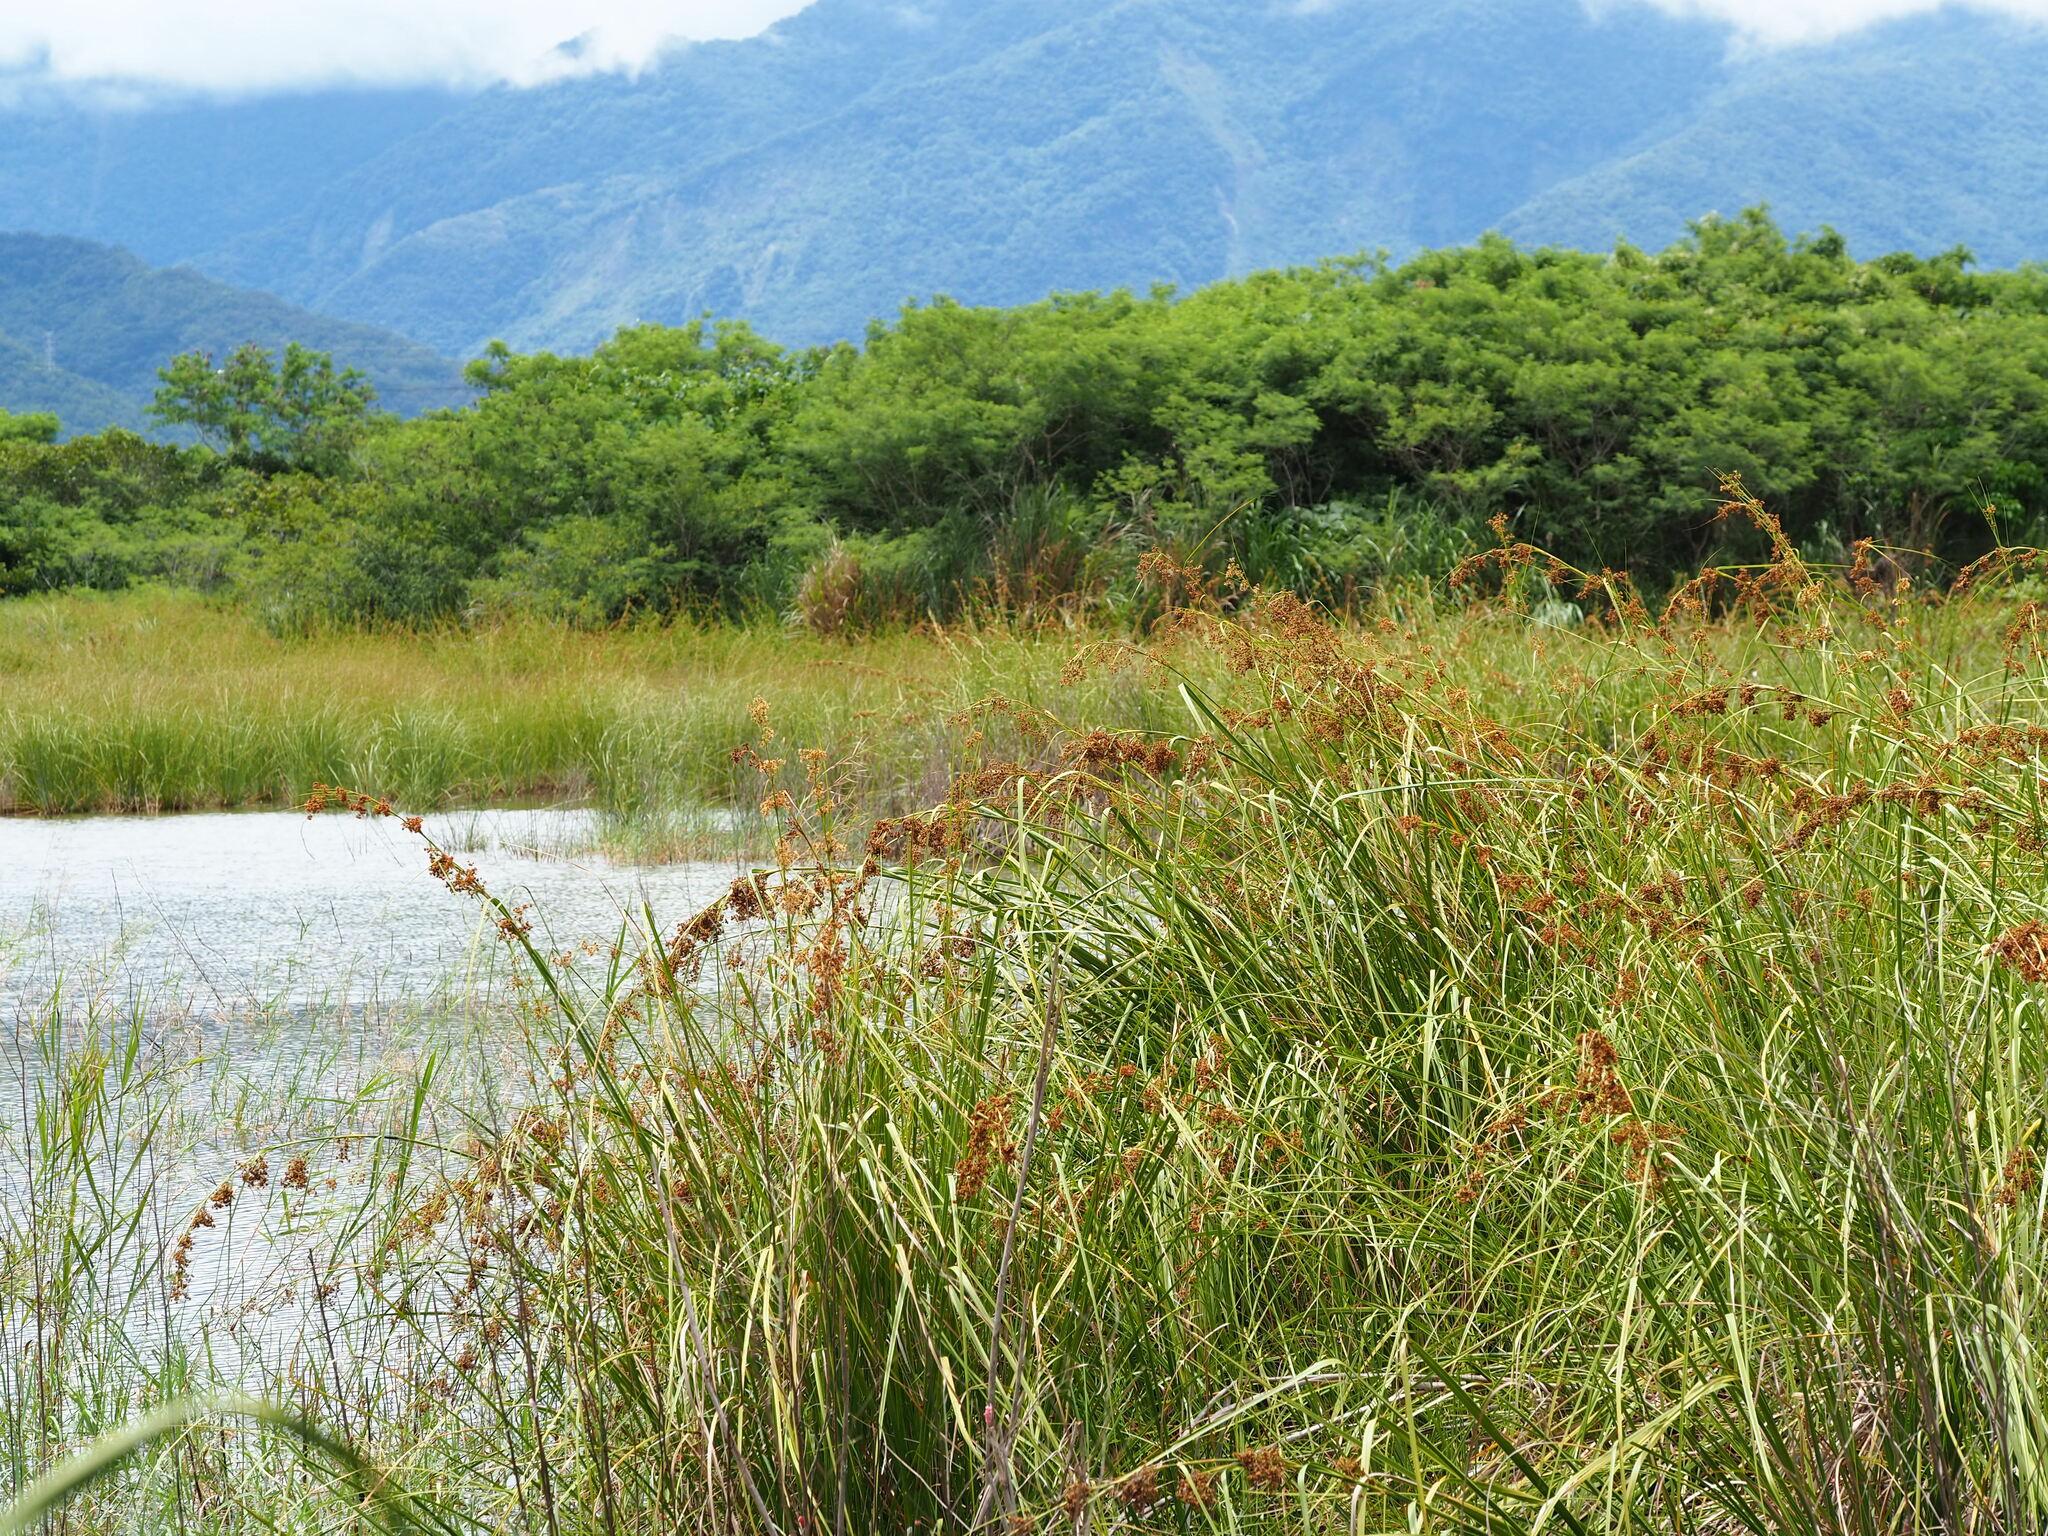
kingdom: Plantae
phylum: Tracheophyta
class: Liliopsida
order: Poales
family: Cyperaceae
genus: Cladium
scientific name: Cladium mariscus
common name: Great fen-sedge
